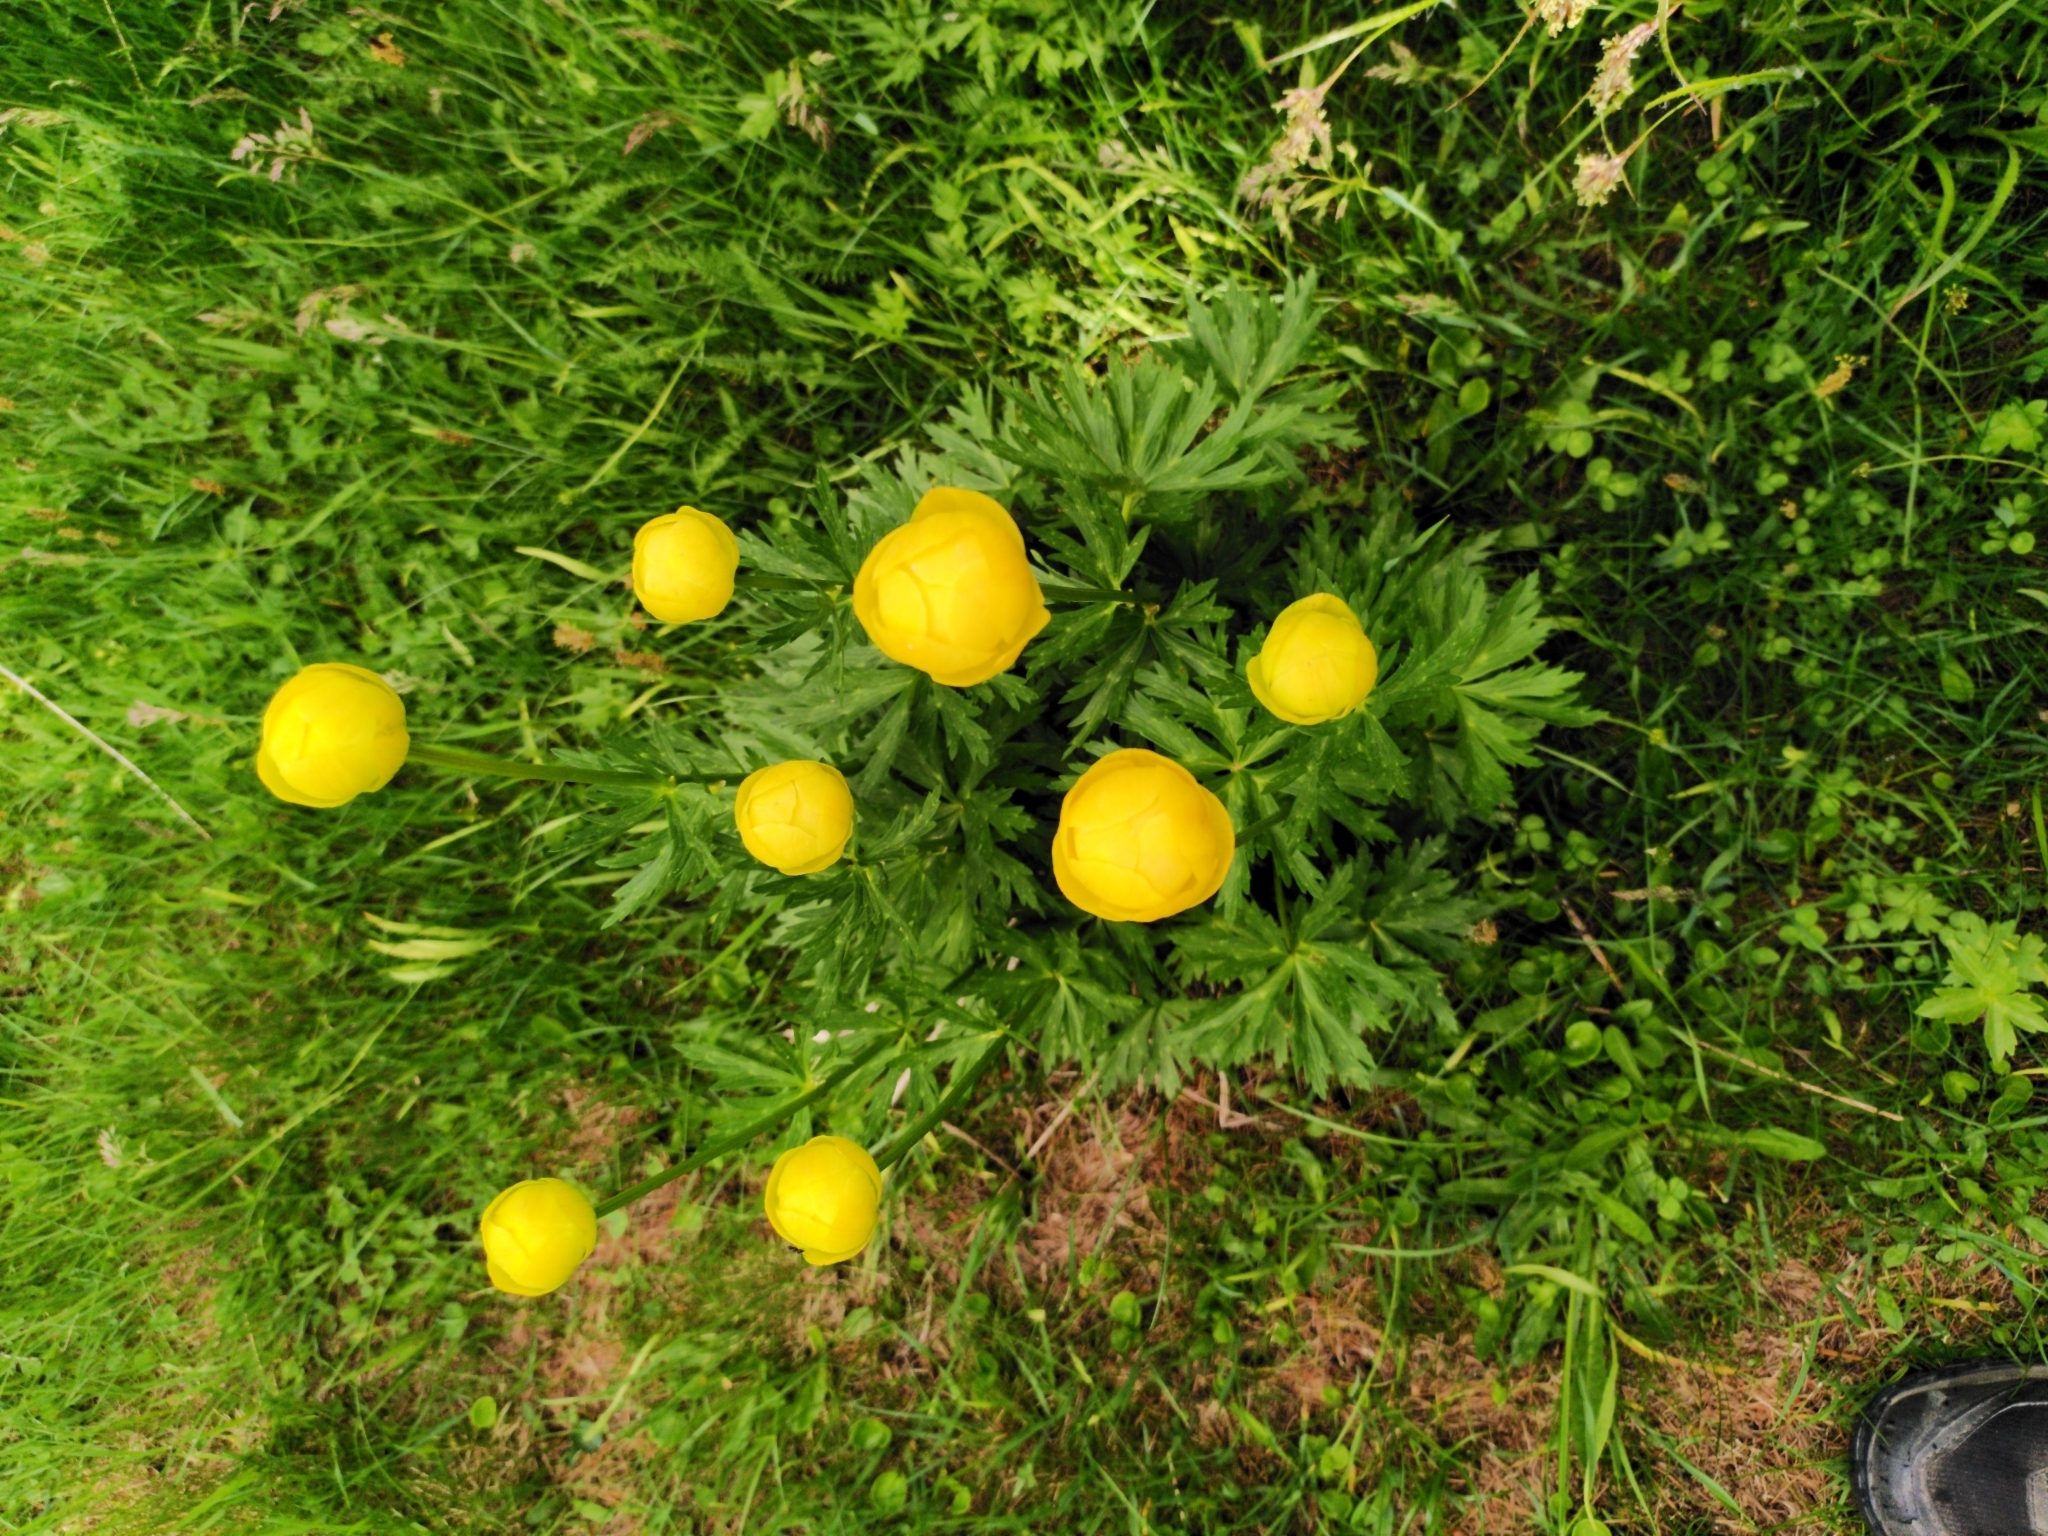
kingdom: Plantae
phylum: Tracheophyta
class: Magnoliopsida
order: Ranunculales
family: Ranunculaceae
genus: Trollius
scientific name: Trollius europaeus
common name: European globeflower
